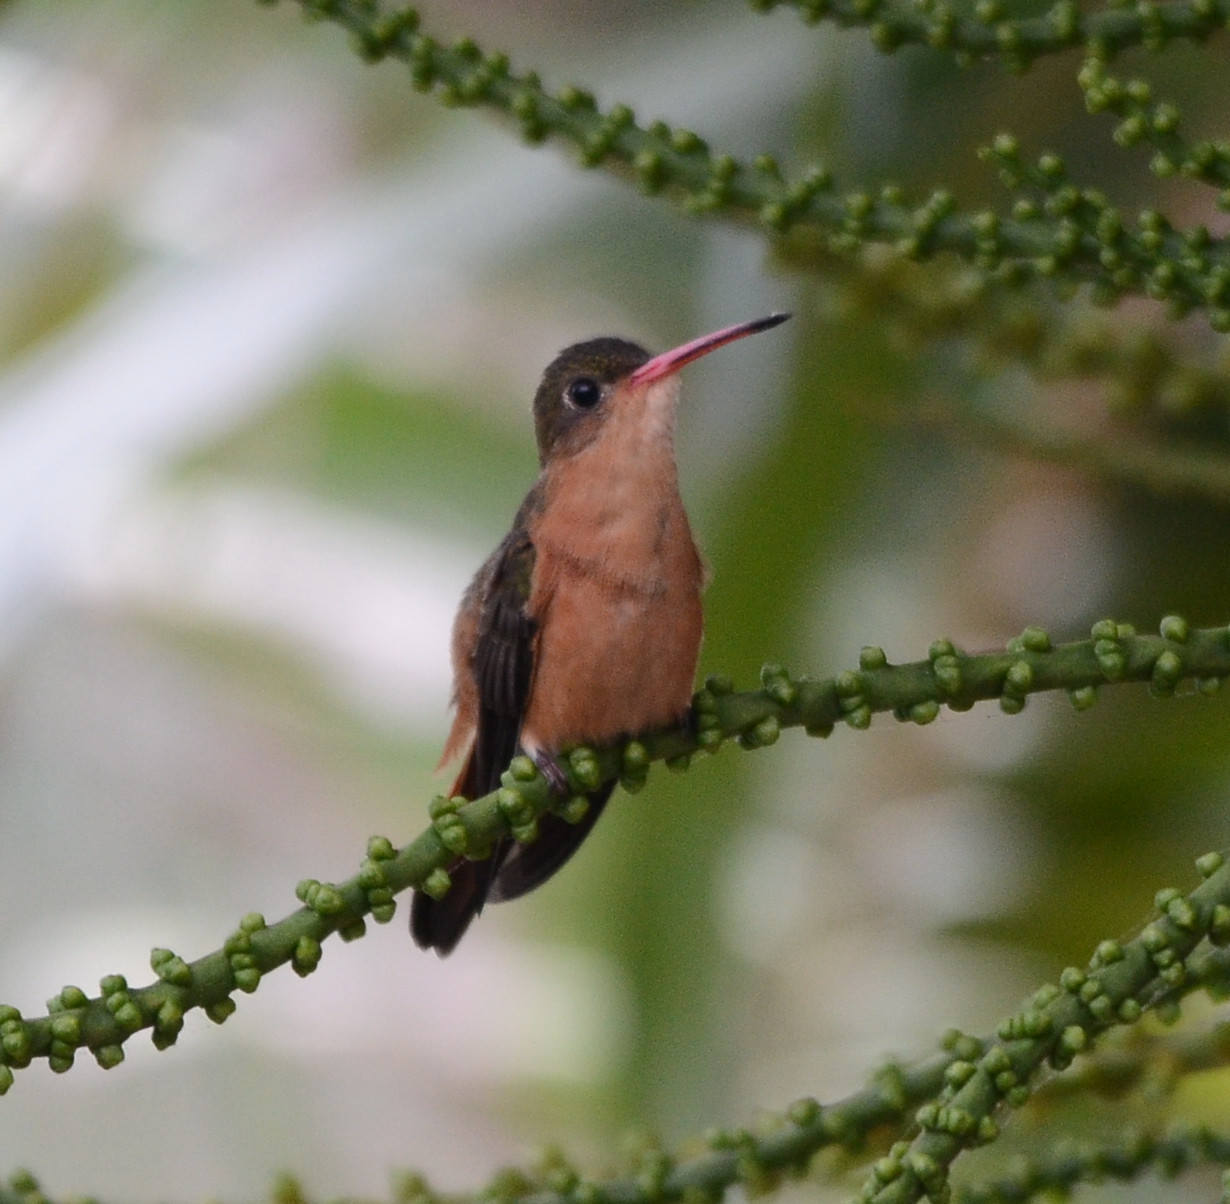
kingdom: Animalia
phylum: Chordata
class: Aves
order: Apodiformes
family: Trochilidae
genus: Amazilia
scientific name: Amazilia rutila
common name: Cinnamon hummingbird
